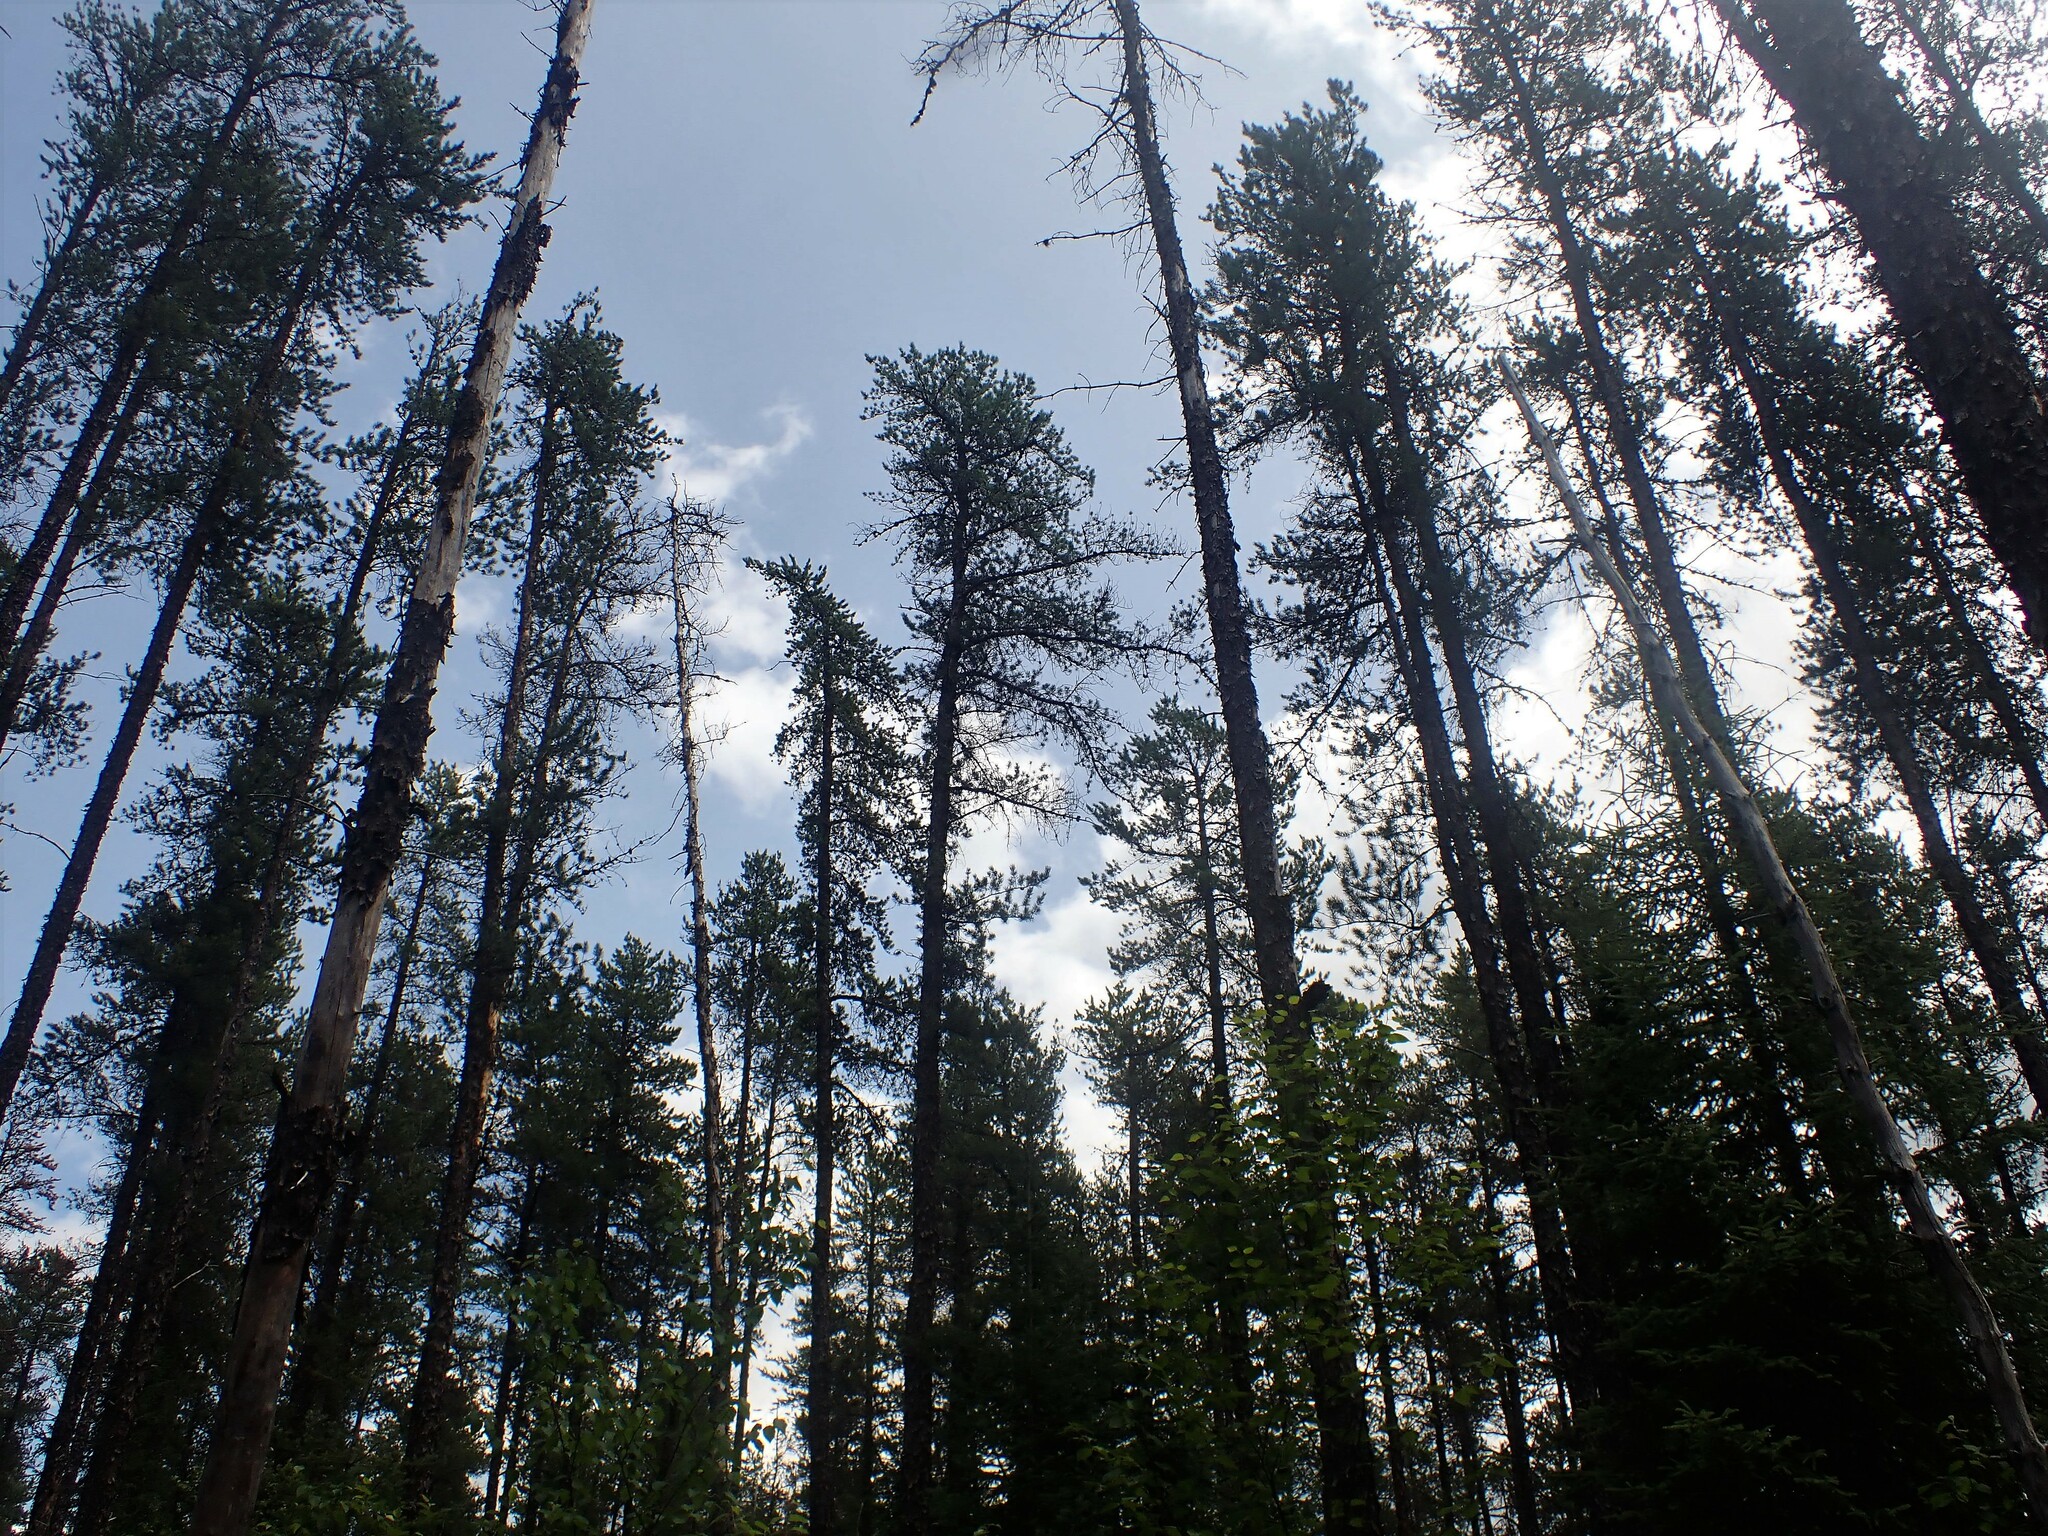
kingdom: Plantae
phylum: Tracheophyta
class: Pinopsida
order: Pinales
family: Pinaceae
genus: Pinus
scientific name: Pinus banksiana
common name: Jack pine
